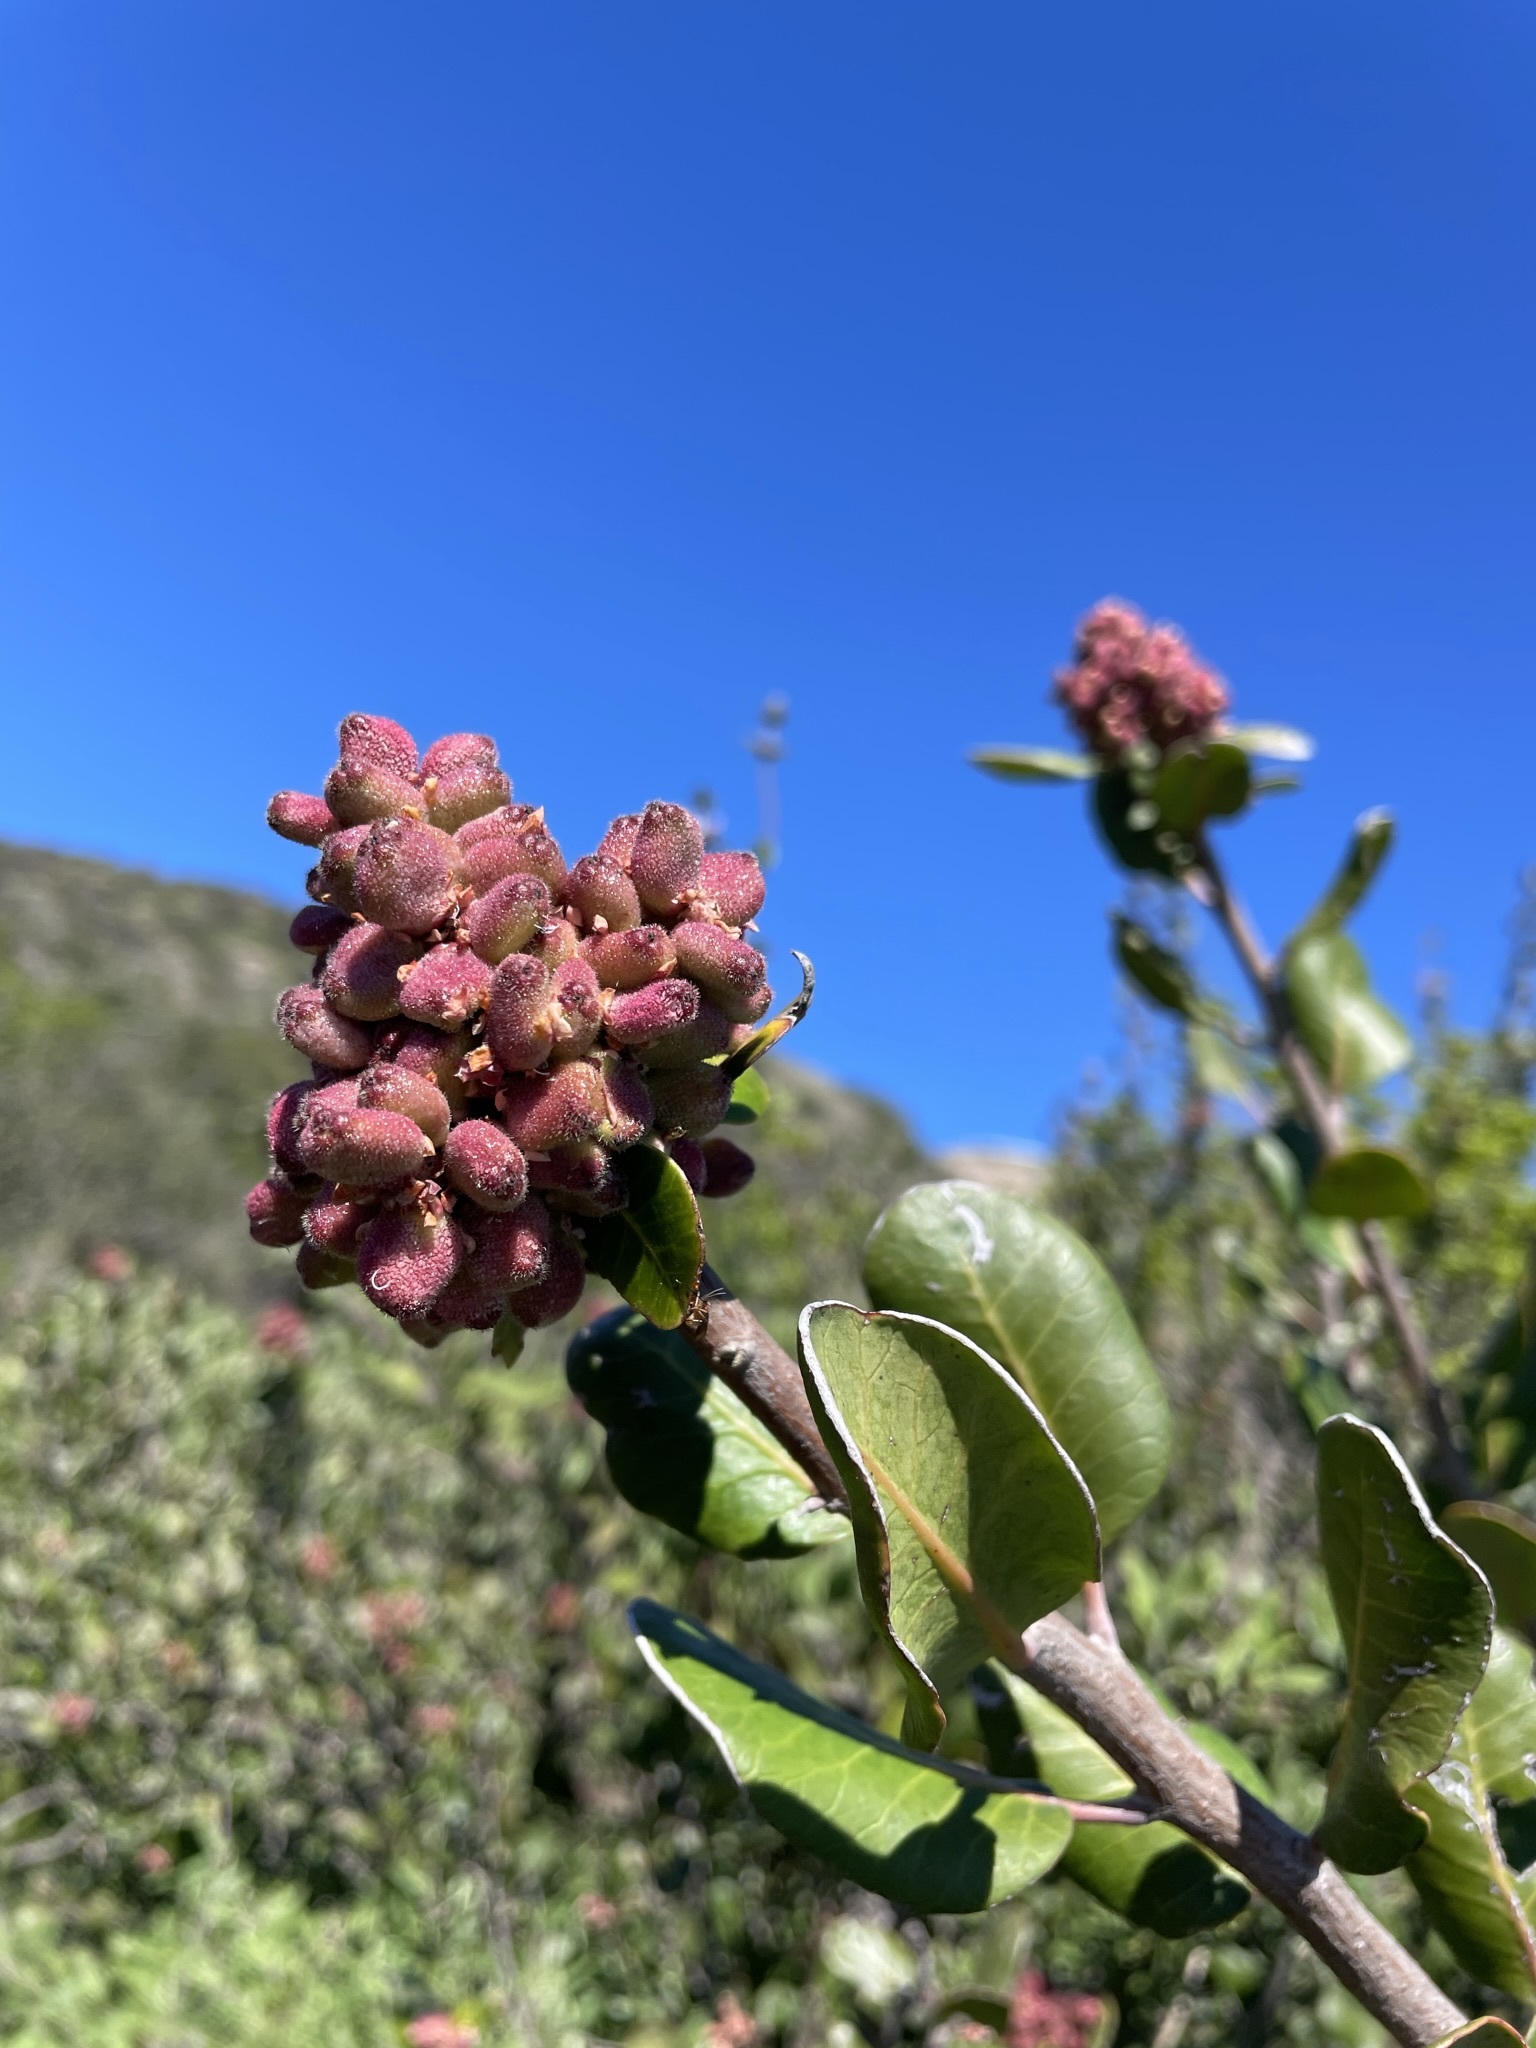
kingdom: Plantae
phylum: Tracheophyta
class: Magnoliopsida
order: Sapindales
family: Anacardiaceae
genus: Rhus
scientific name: Rhus integrifolia
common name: Lemonade sumac
